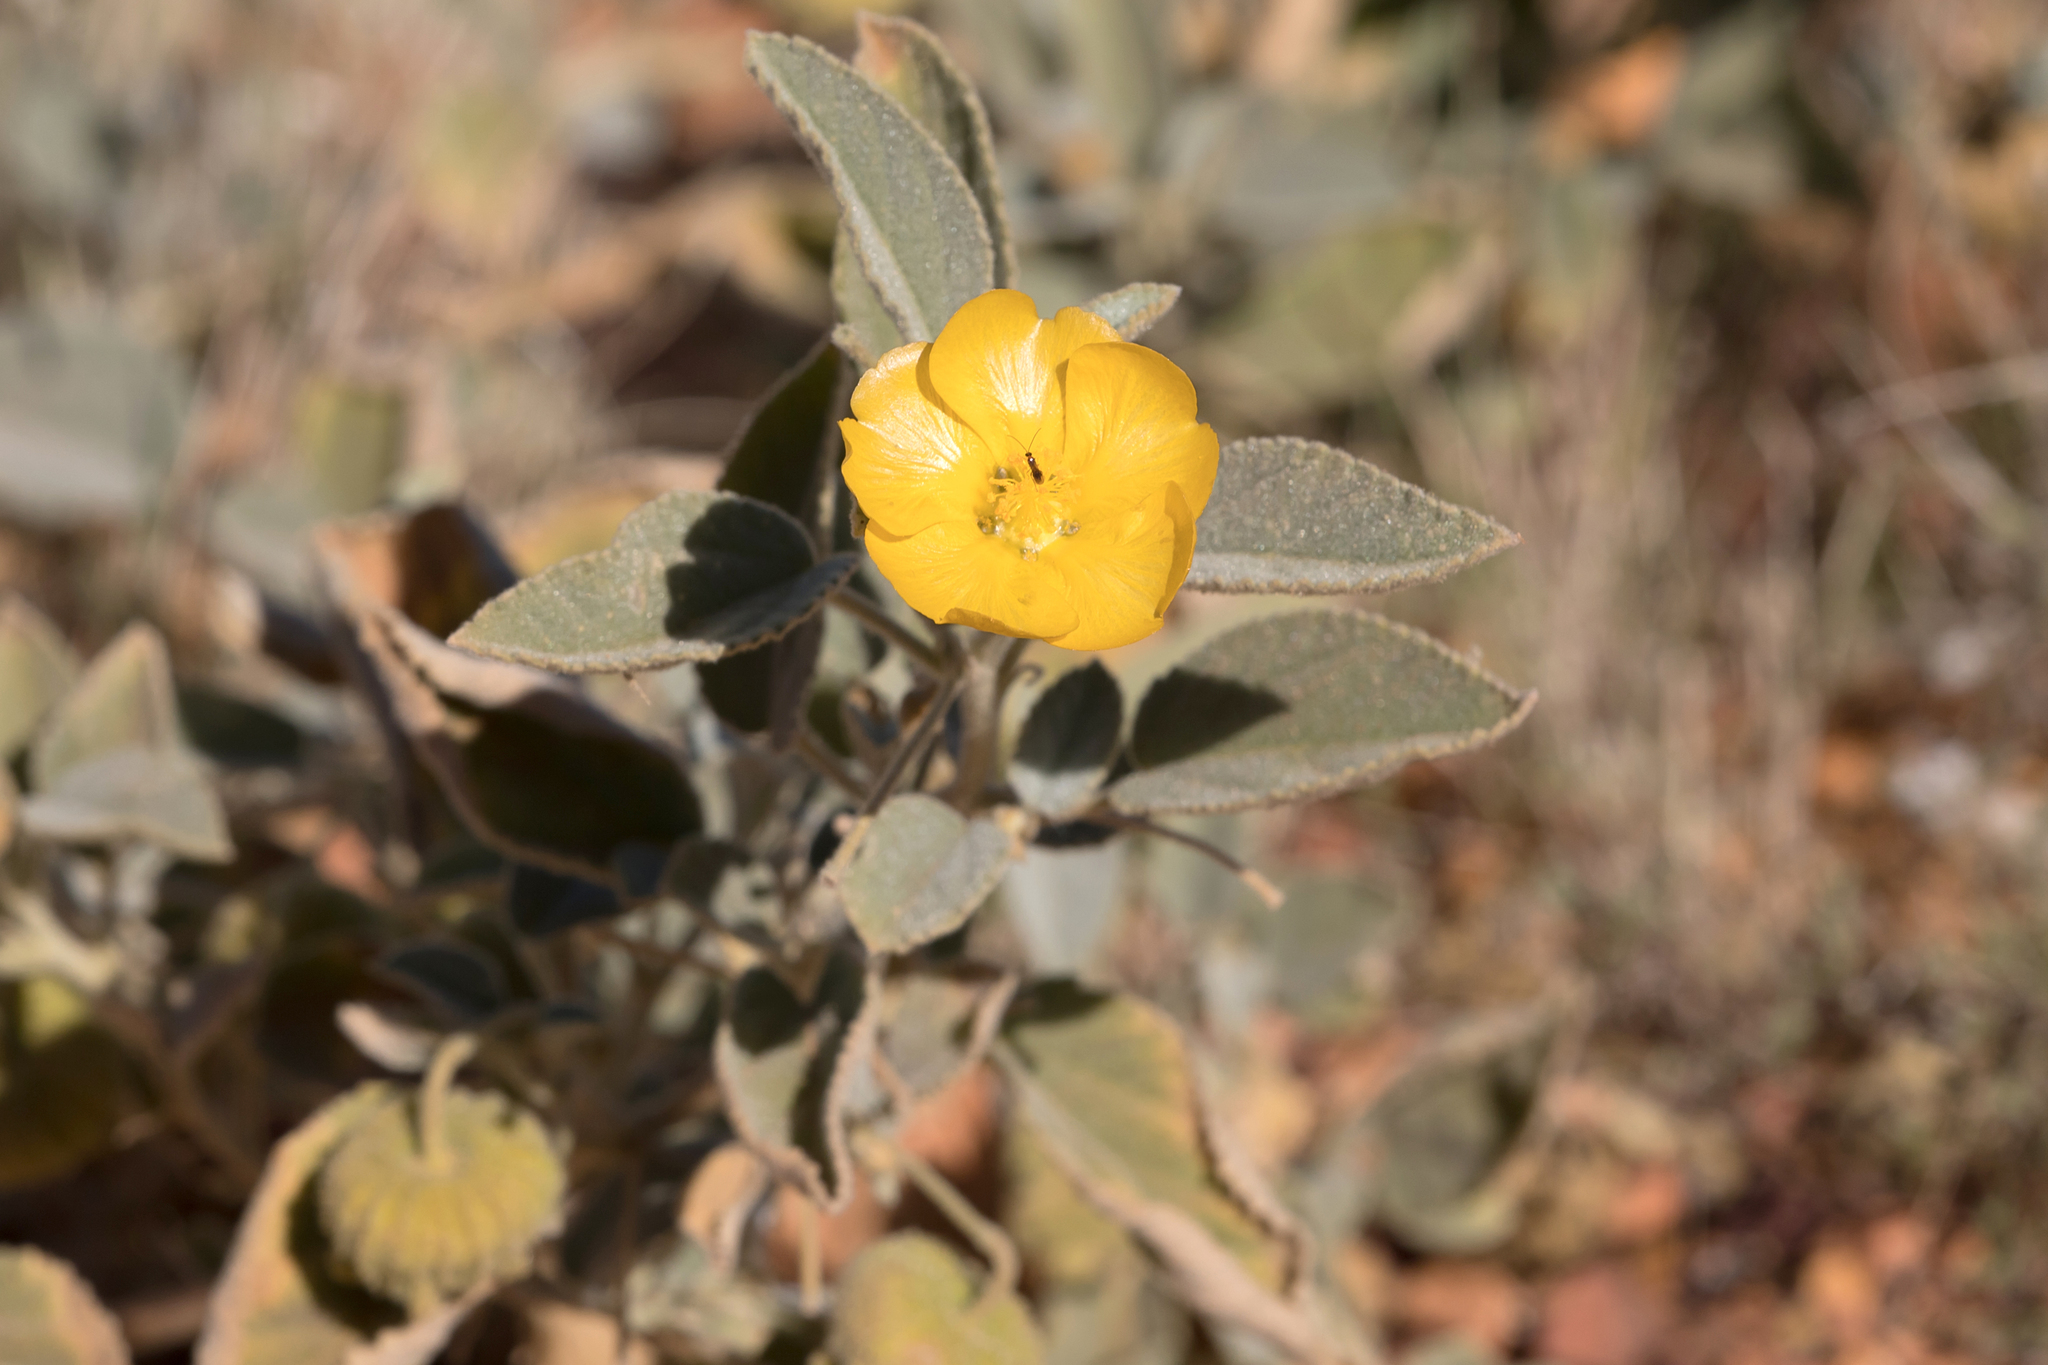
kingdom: Plantae
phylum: Tracheophyta
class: Magnoliopsida
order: Malvales
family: Malvaceae
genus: Sida
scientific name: Sida platycalyx
